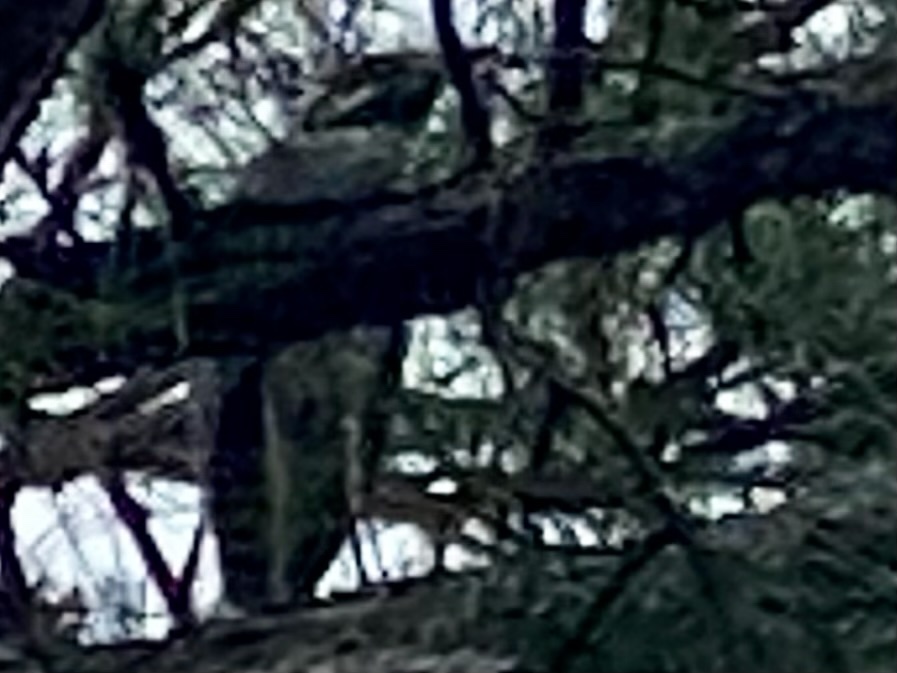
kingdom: Animalia
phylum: Chordata
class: Aves
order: Pelecaniformes
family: Ardeidae
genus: Nyctanassa
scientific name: Nyctanassa violacea
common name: Yellow-crowned night heron
